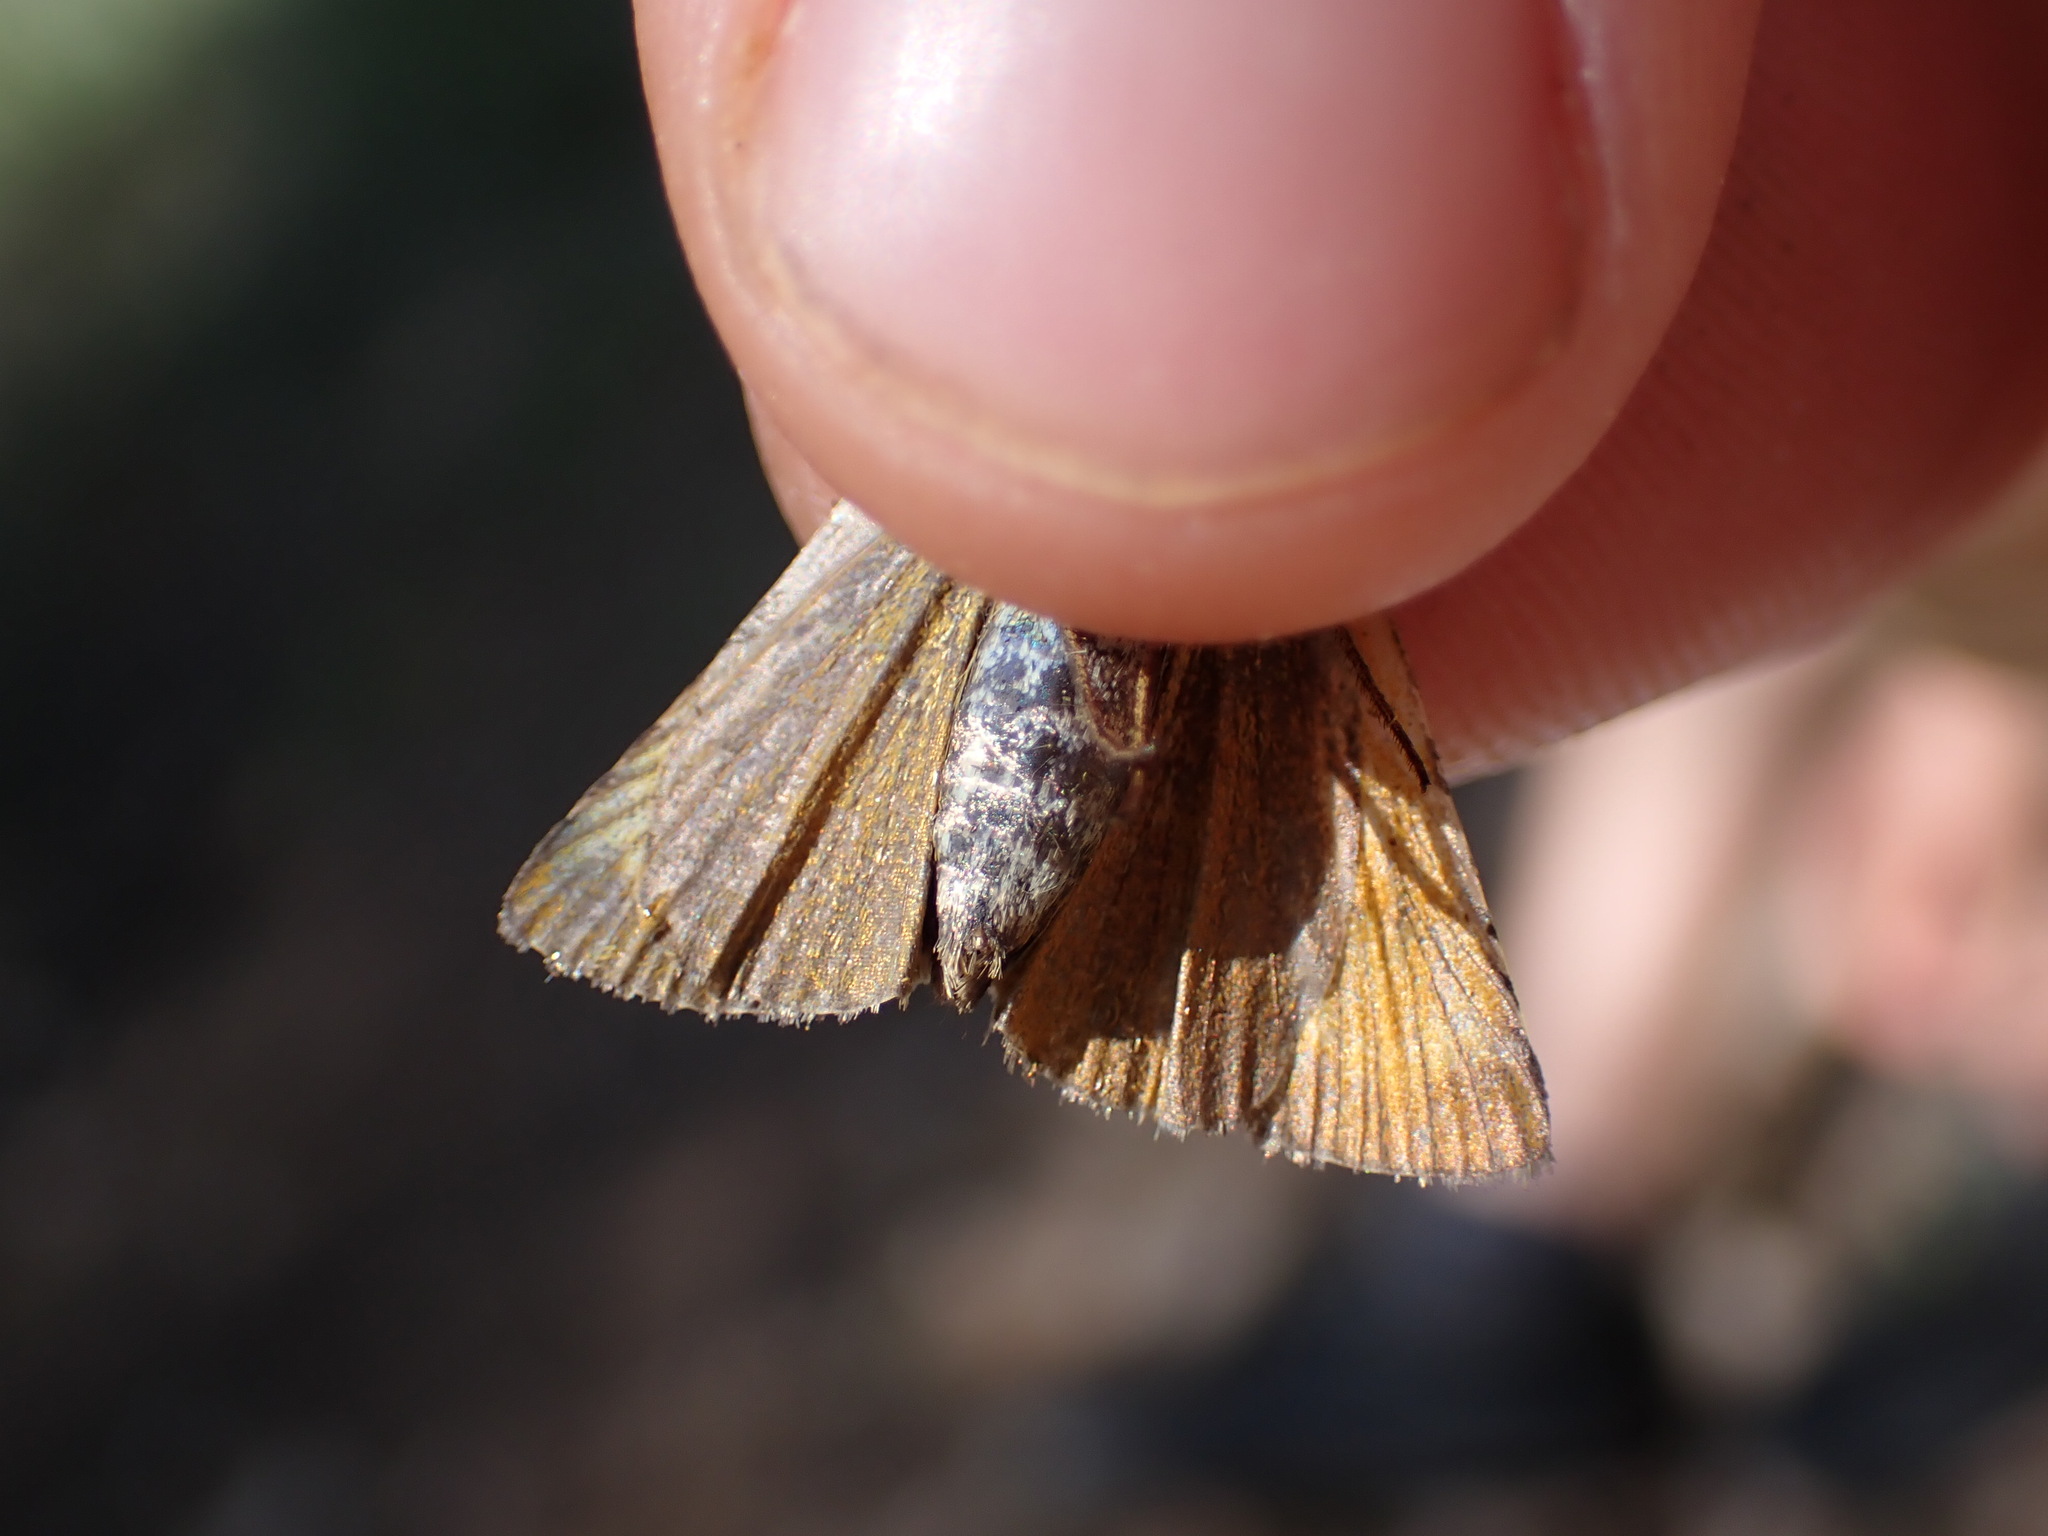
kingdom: Animalia
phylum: Arthropoda
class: Insecta
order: Lepidoptera
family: Hesperiidae
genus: Thymelicus
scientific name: Thymelicus acteon
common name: Lulworth skipper
